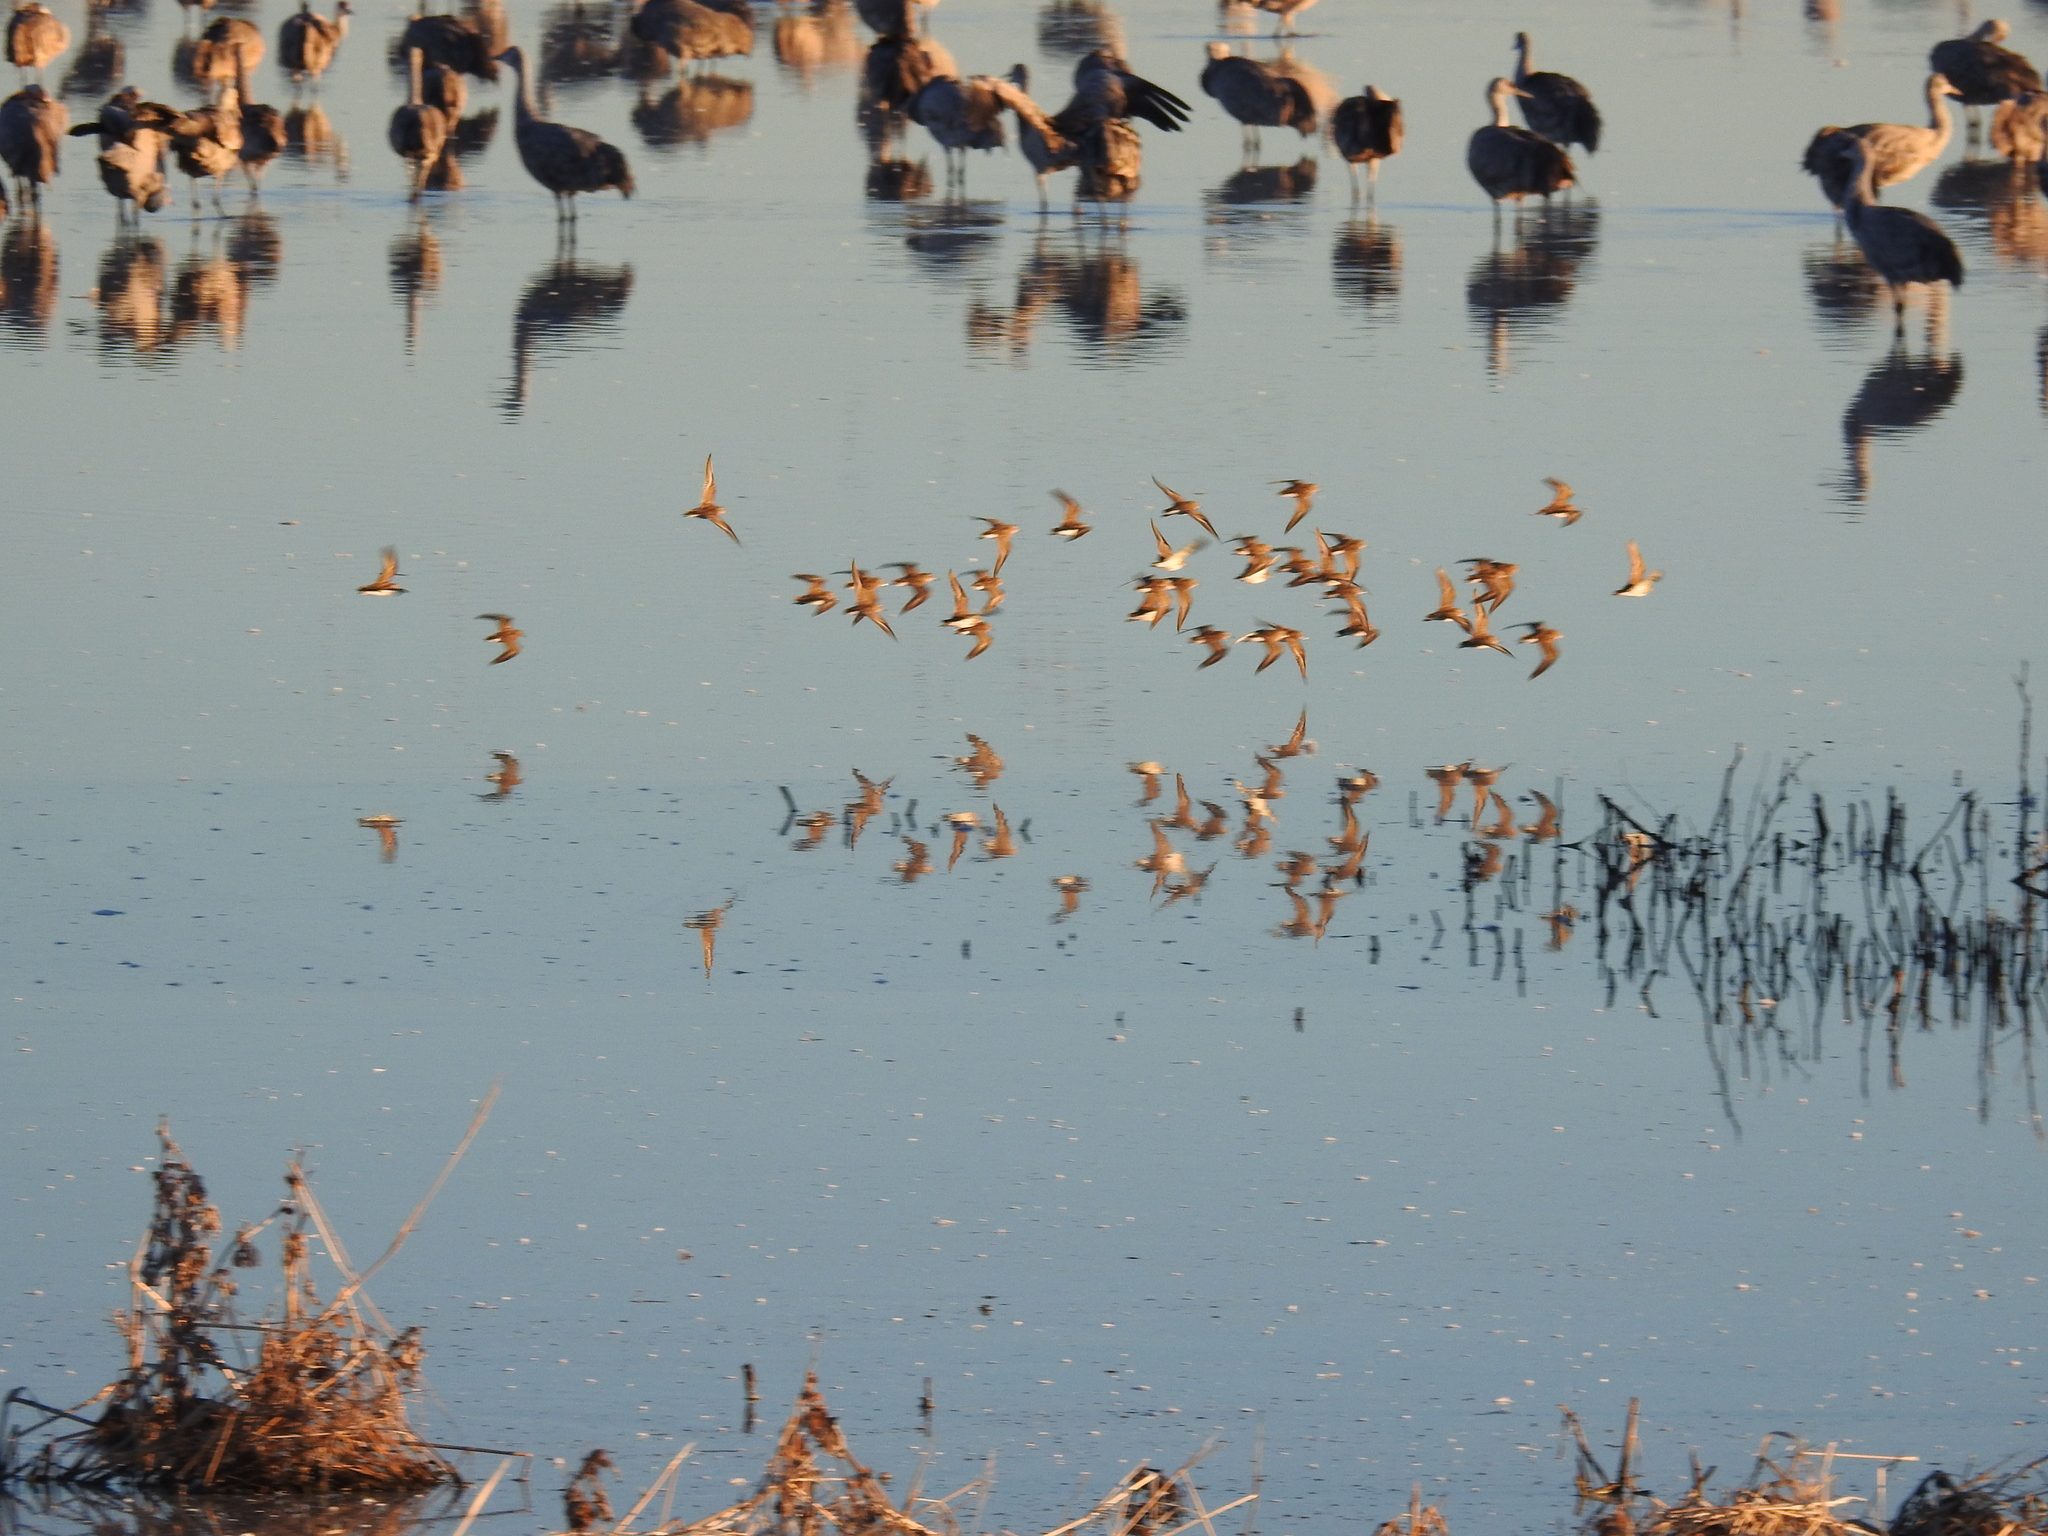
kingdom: Animalia
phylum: Chordata
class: Aves
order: Charadriiformes
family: Scolopacidae
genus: Calidris
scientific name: Calidris minutilla
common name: Least sandpiper
